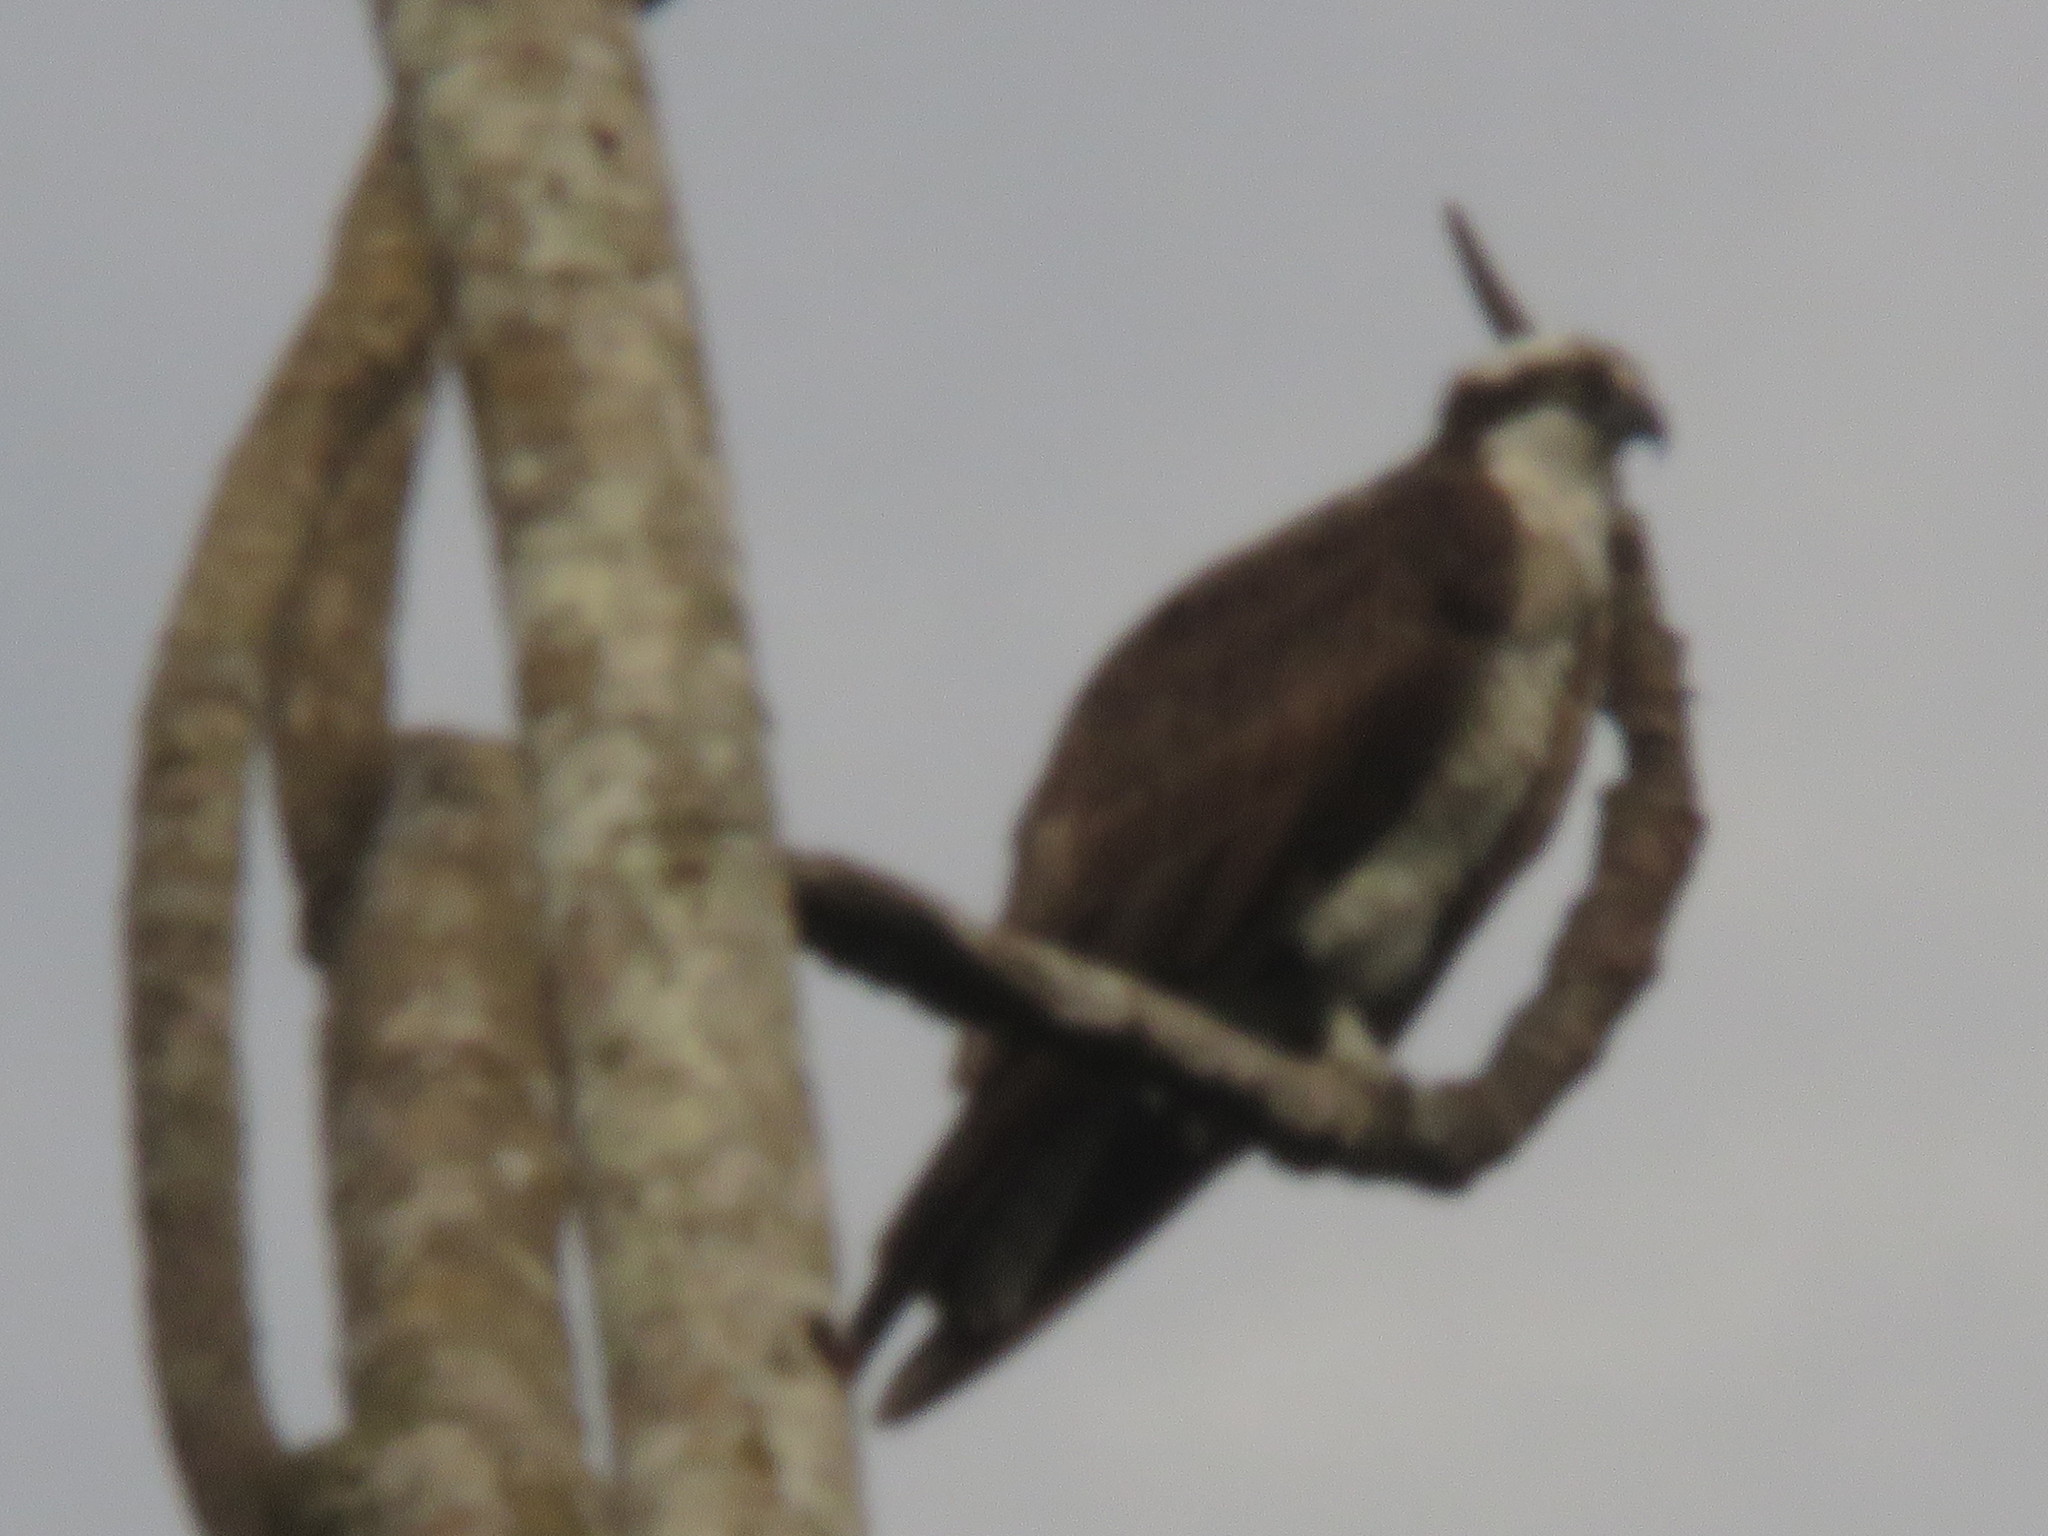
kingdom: Animalia
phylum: Chordata
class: Aves
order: Accipitriformes
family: Pandionidae
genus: Pandion
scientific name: Pandion haliaetus
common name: Osprey
